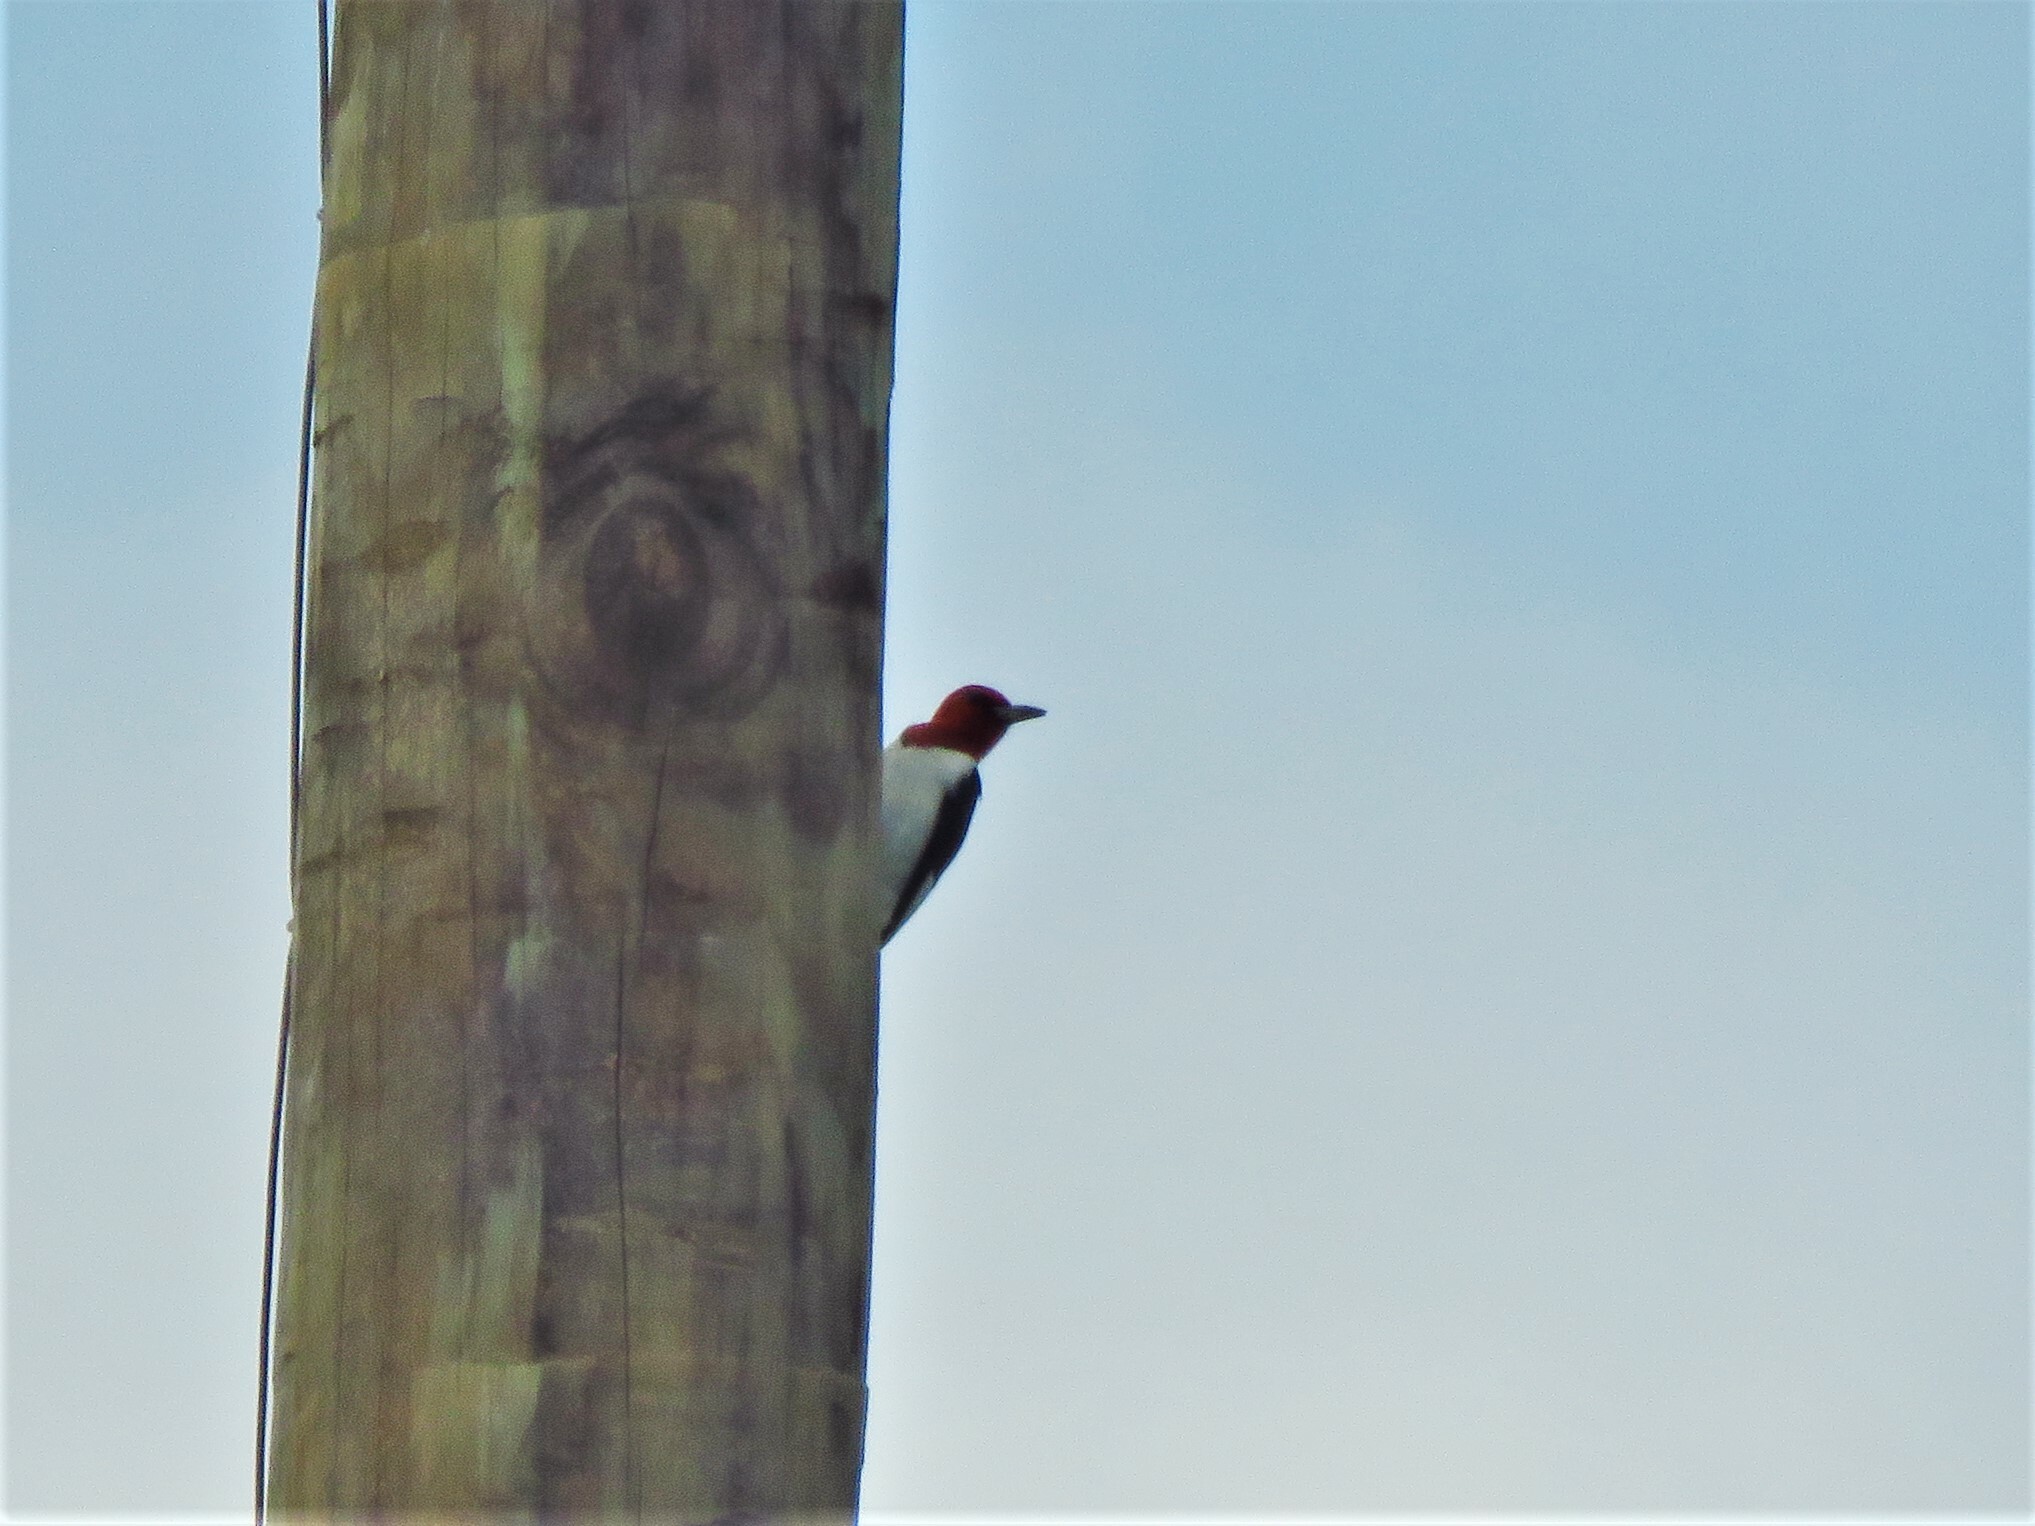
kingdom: Animalia
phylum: Chordata
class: Aves
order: Piciformes
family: Picidae
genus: Melanerpes
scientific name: Melanerpes erythrocephalus
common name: Red-headed woodpecker
